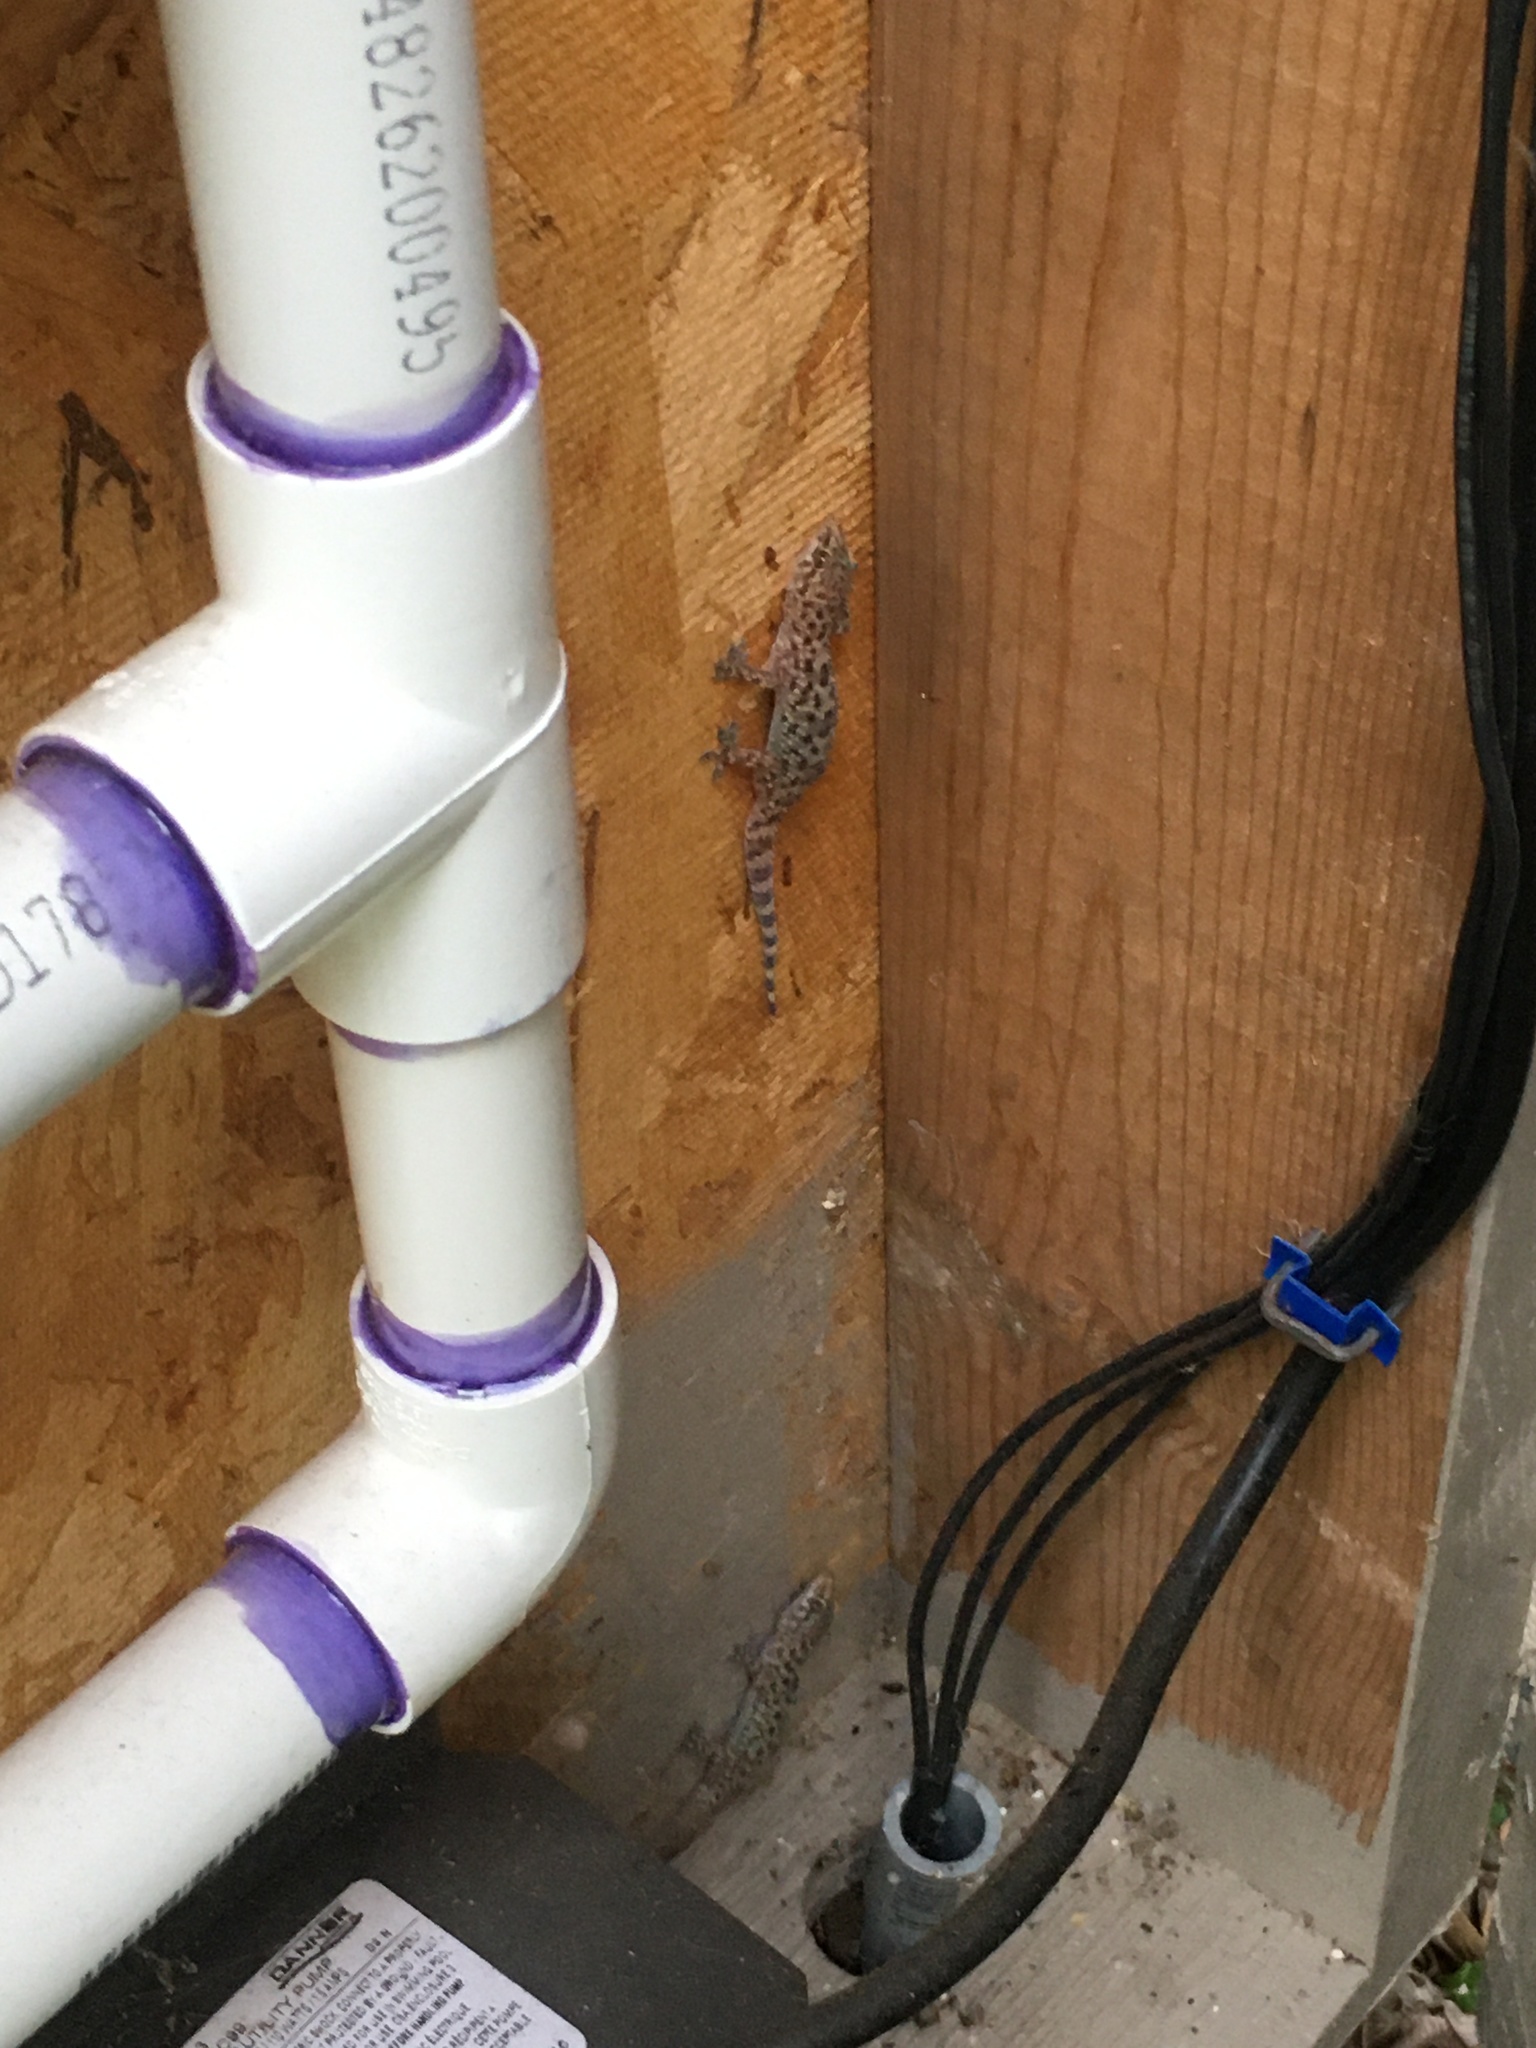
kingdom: Animalia
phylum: Chordata
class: Squamata
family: Gekkonidae
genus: Hemidactylus
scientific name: Hemidactylus turcicus
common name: Turkish gecko
